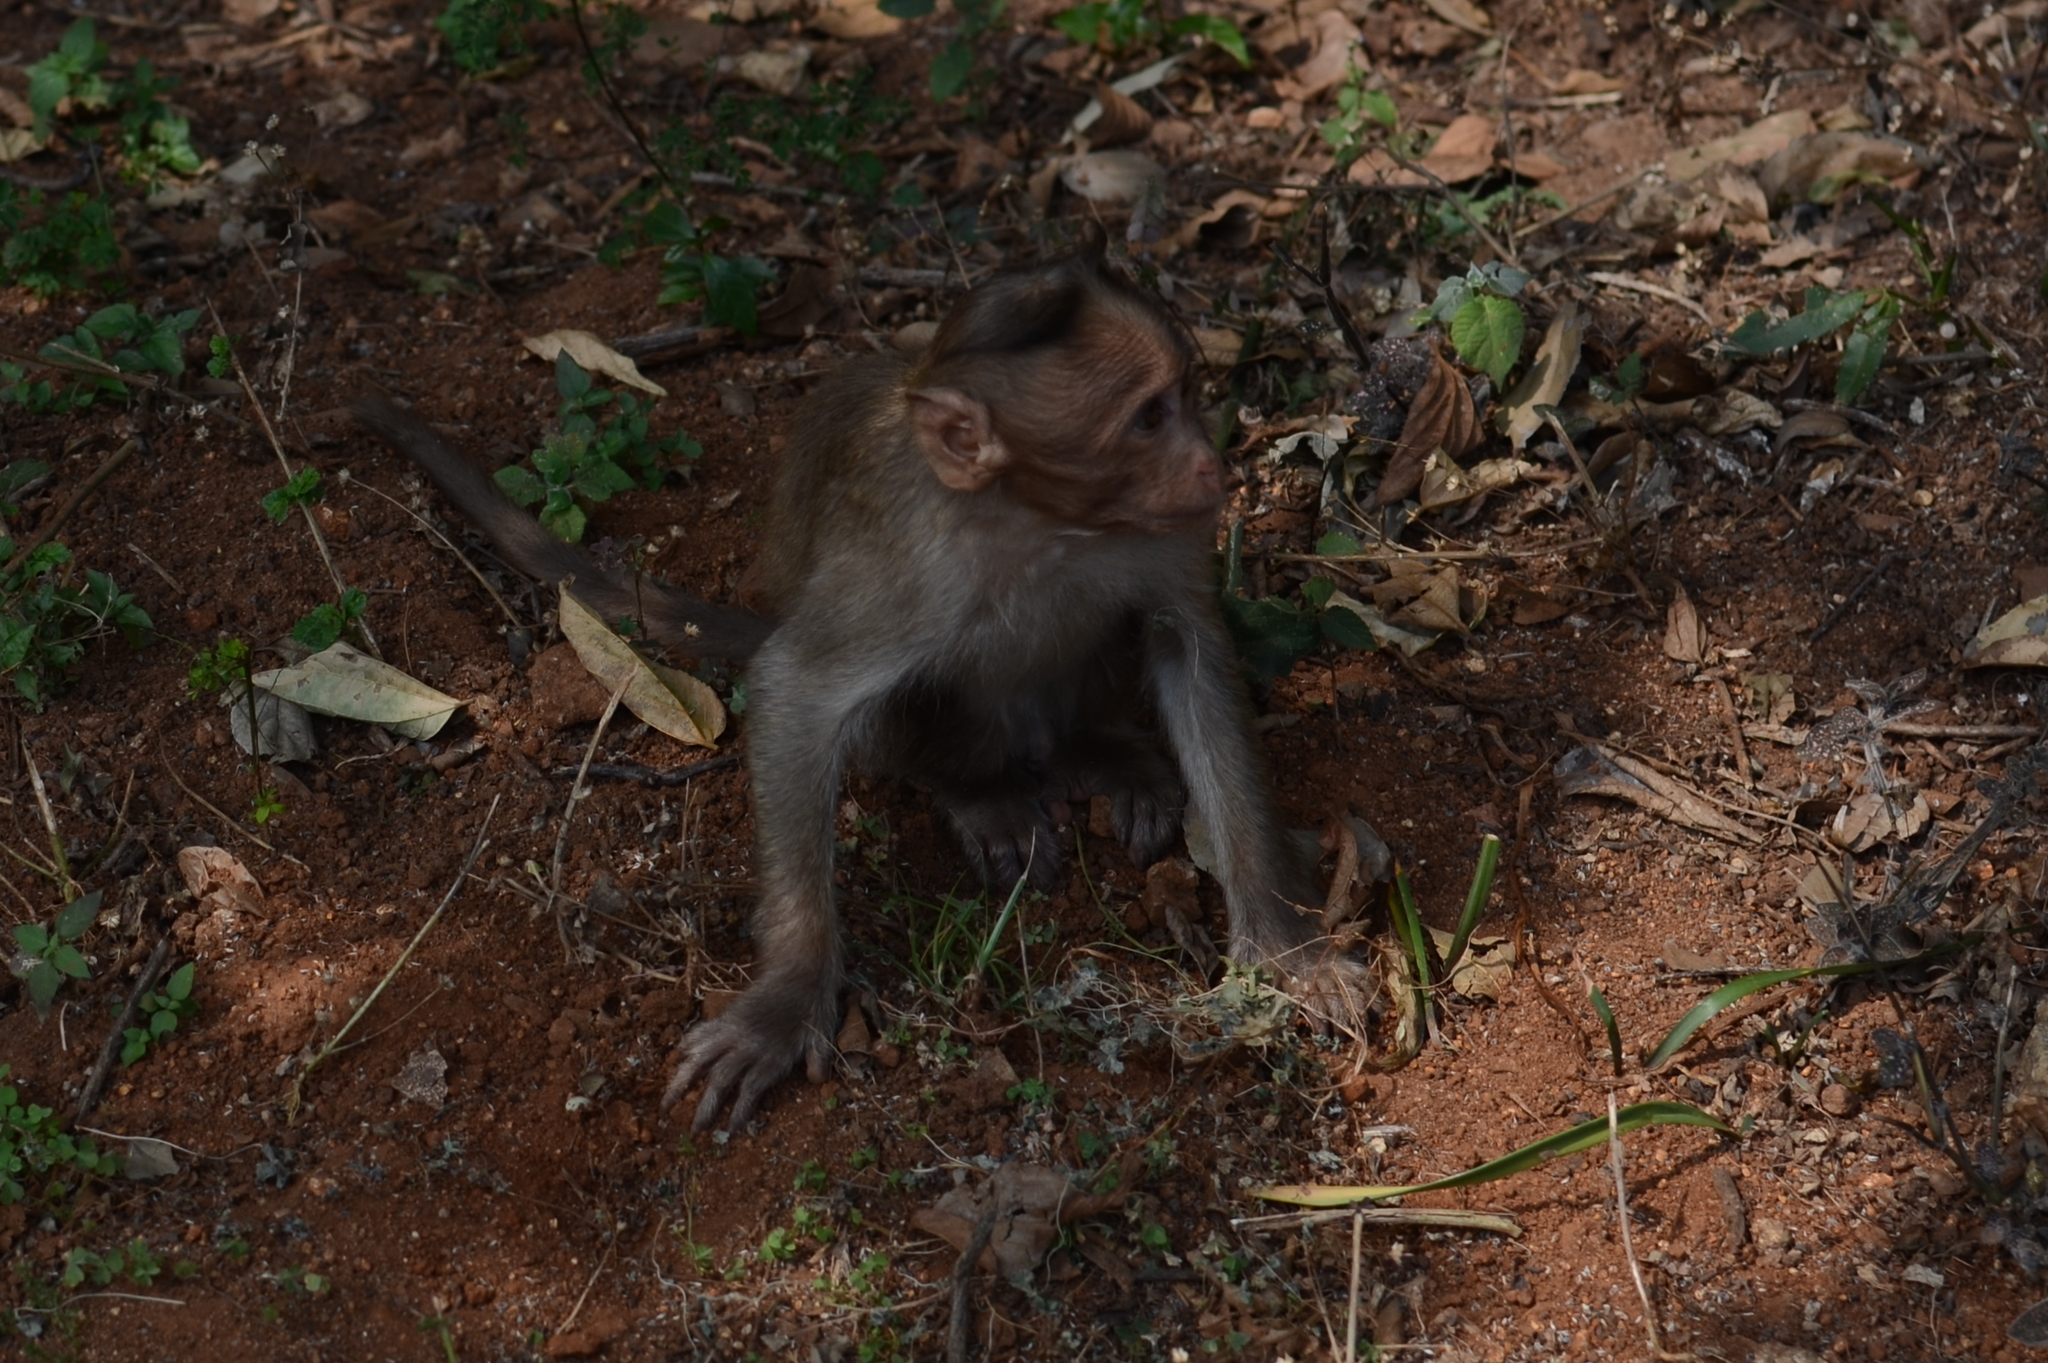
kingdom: Animalia
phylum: Chordata
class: Mammalia
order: Primates
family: Cercopithecidae
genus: Macaca
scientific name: Macaca radiata
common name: Bonnet macaque
